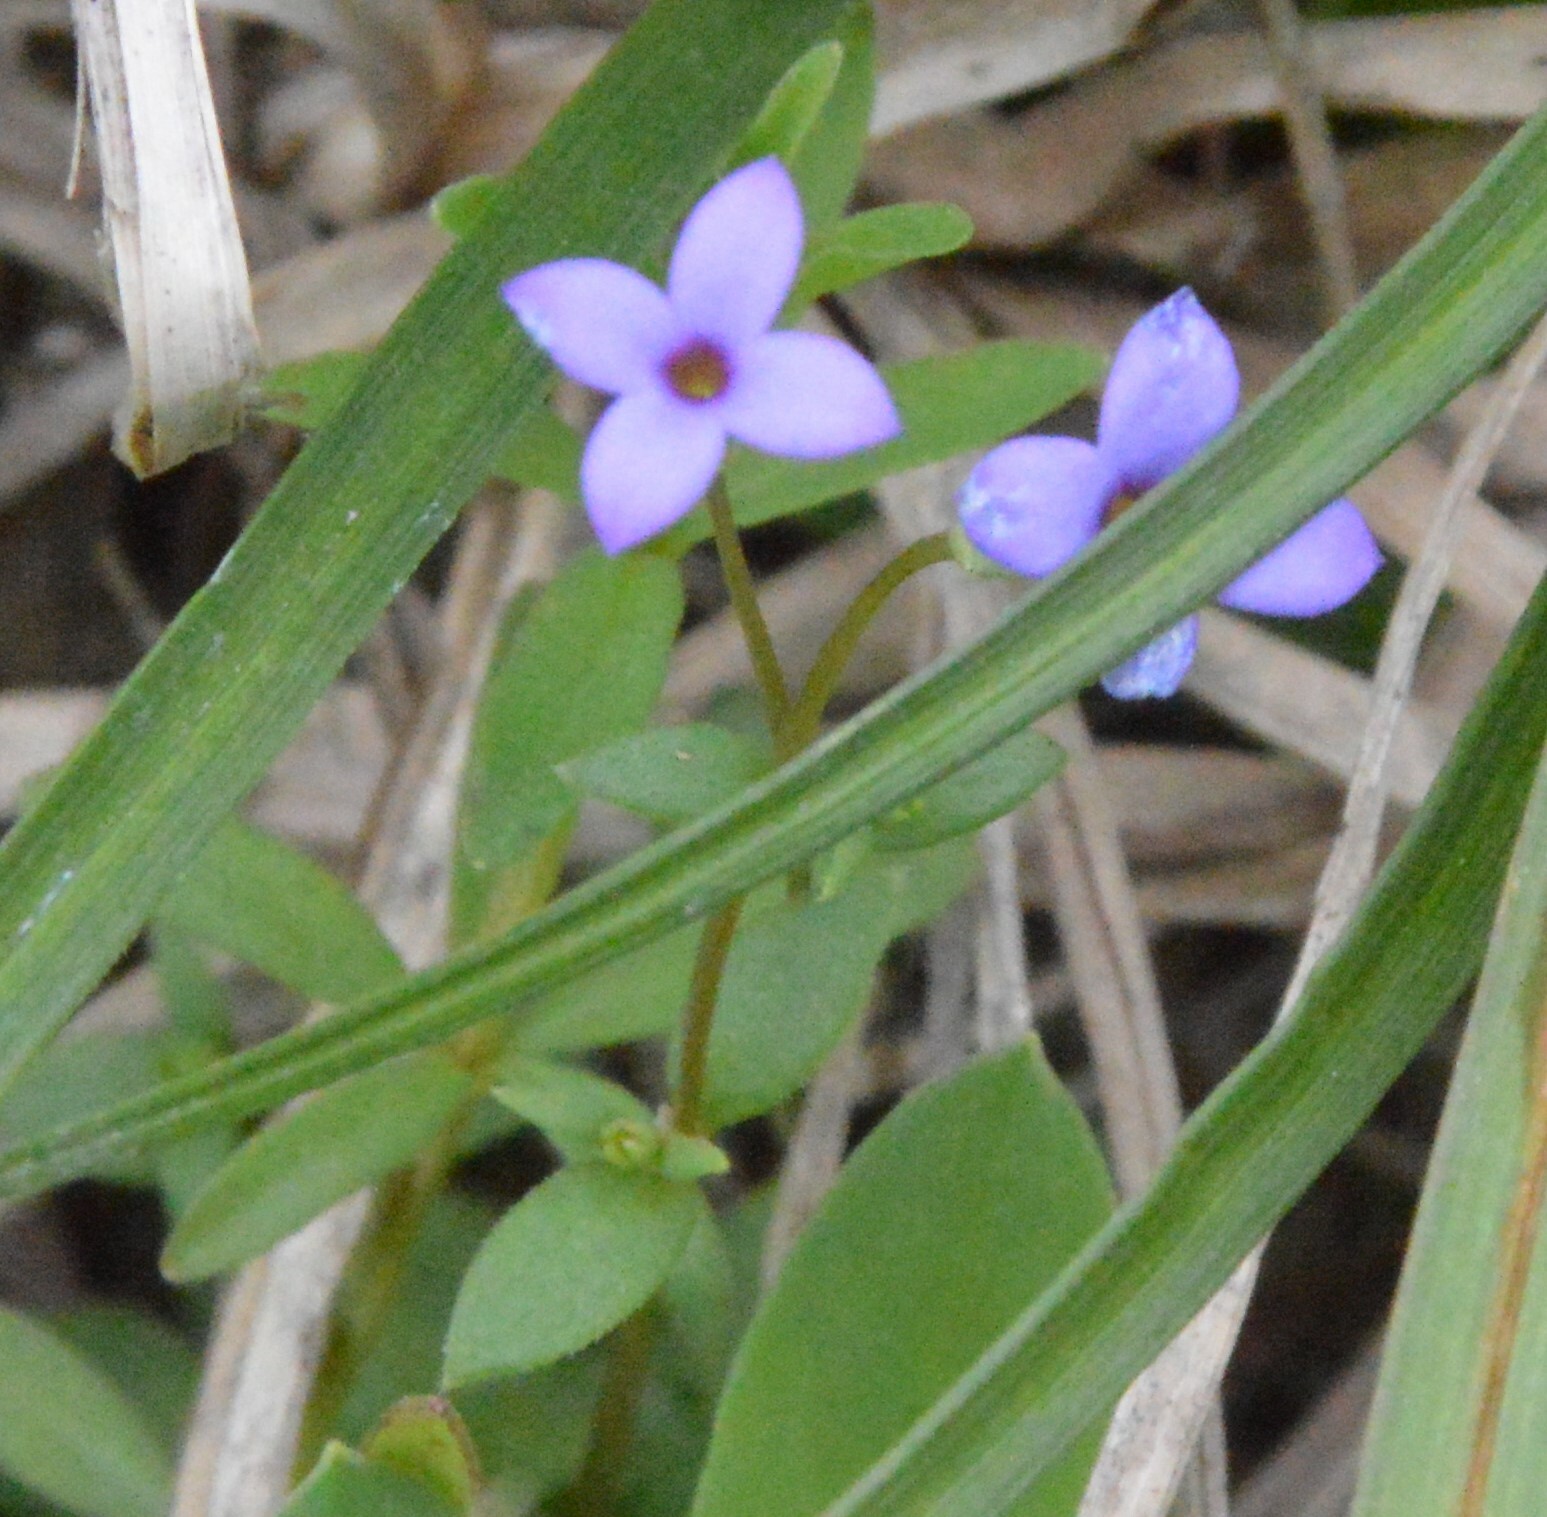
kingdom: Plantae
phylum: Tracheophyta
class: Magnoliopsida
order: Gentianales
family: Rubiaceae
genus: Houstonia
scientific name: Houstonia pusilla
